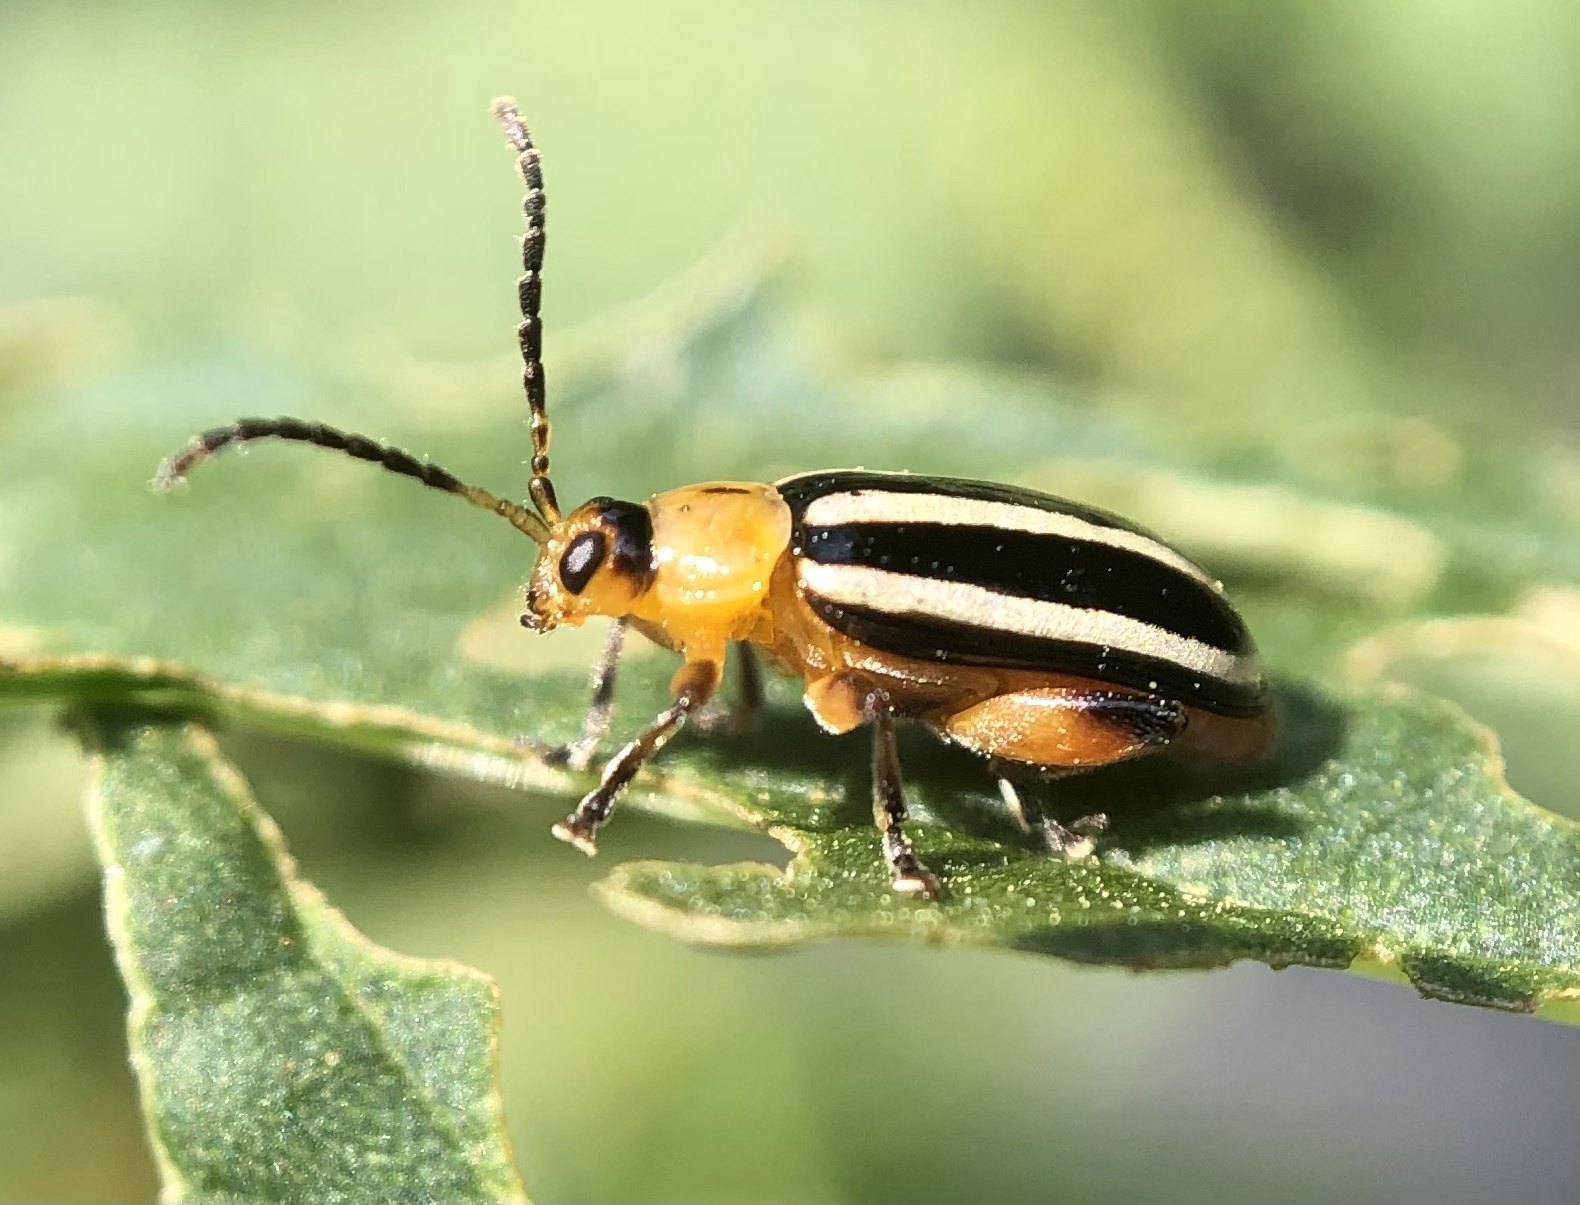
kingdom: Animalia
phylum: Arthropoda
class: Insecta
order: Coleoptera
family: Chrysomelidae
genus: Disonycha
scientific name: Disonycha glabrata
